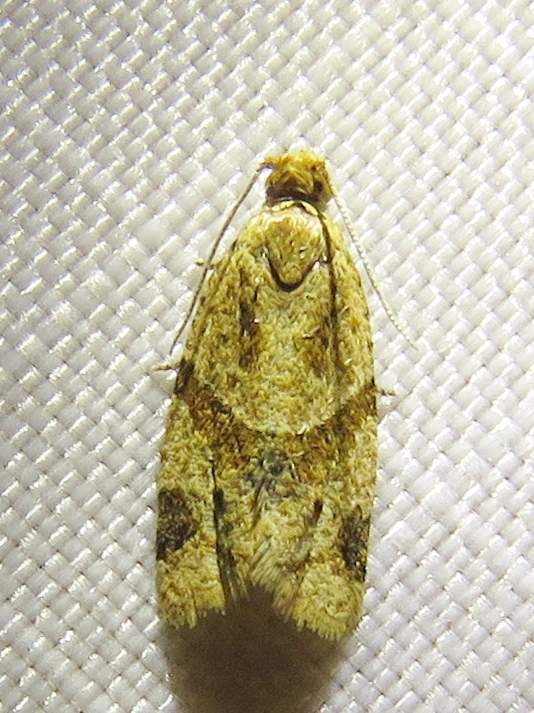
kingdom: Animalia
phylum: Arthropoda
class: Insecta
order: Lepidoptera
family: Tortricidae
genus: Clepsis
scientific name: Clepsis peritana
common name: Garden tortrix
